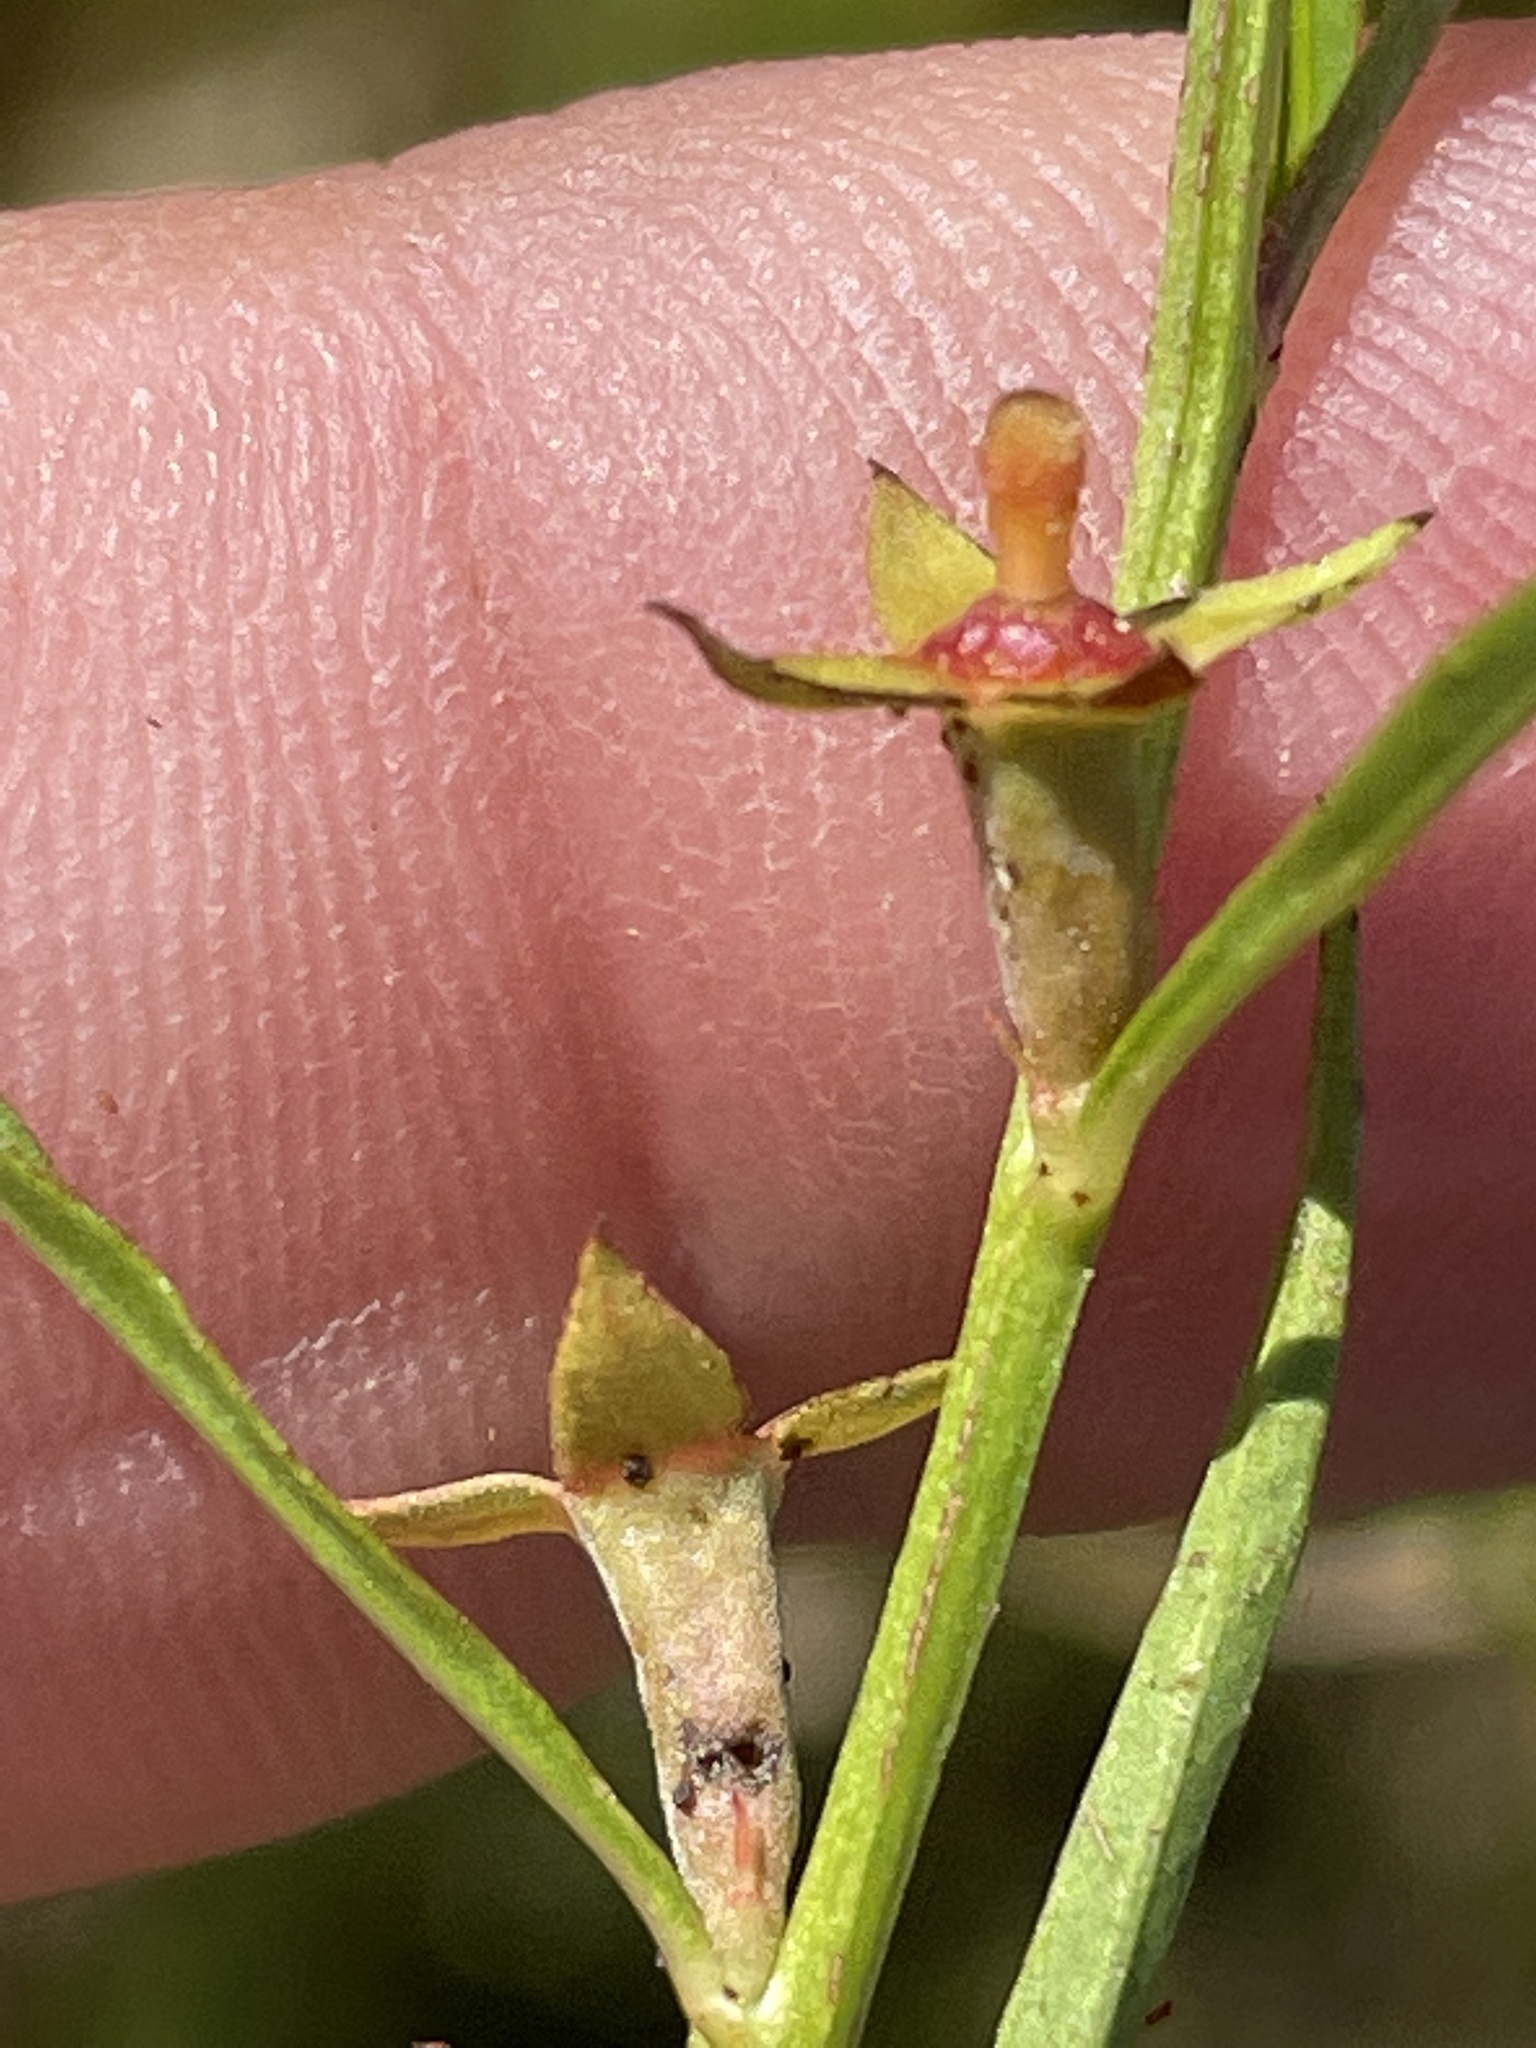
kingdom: Plantae
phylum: Tracheophyta
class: Magnoliopsida
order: Myrtales
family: Onagraceae
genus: Ludwigia
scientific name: Ludwigia linearis
